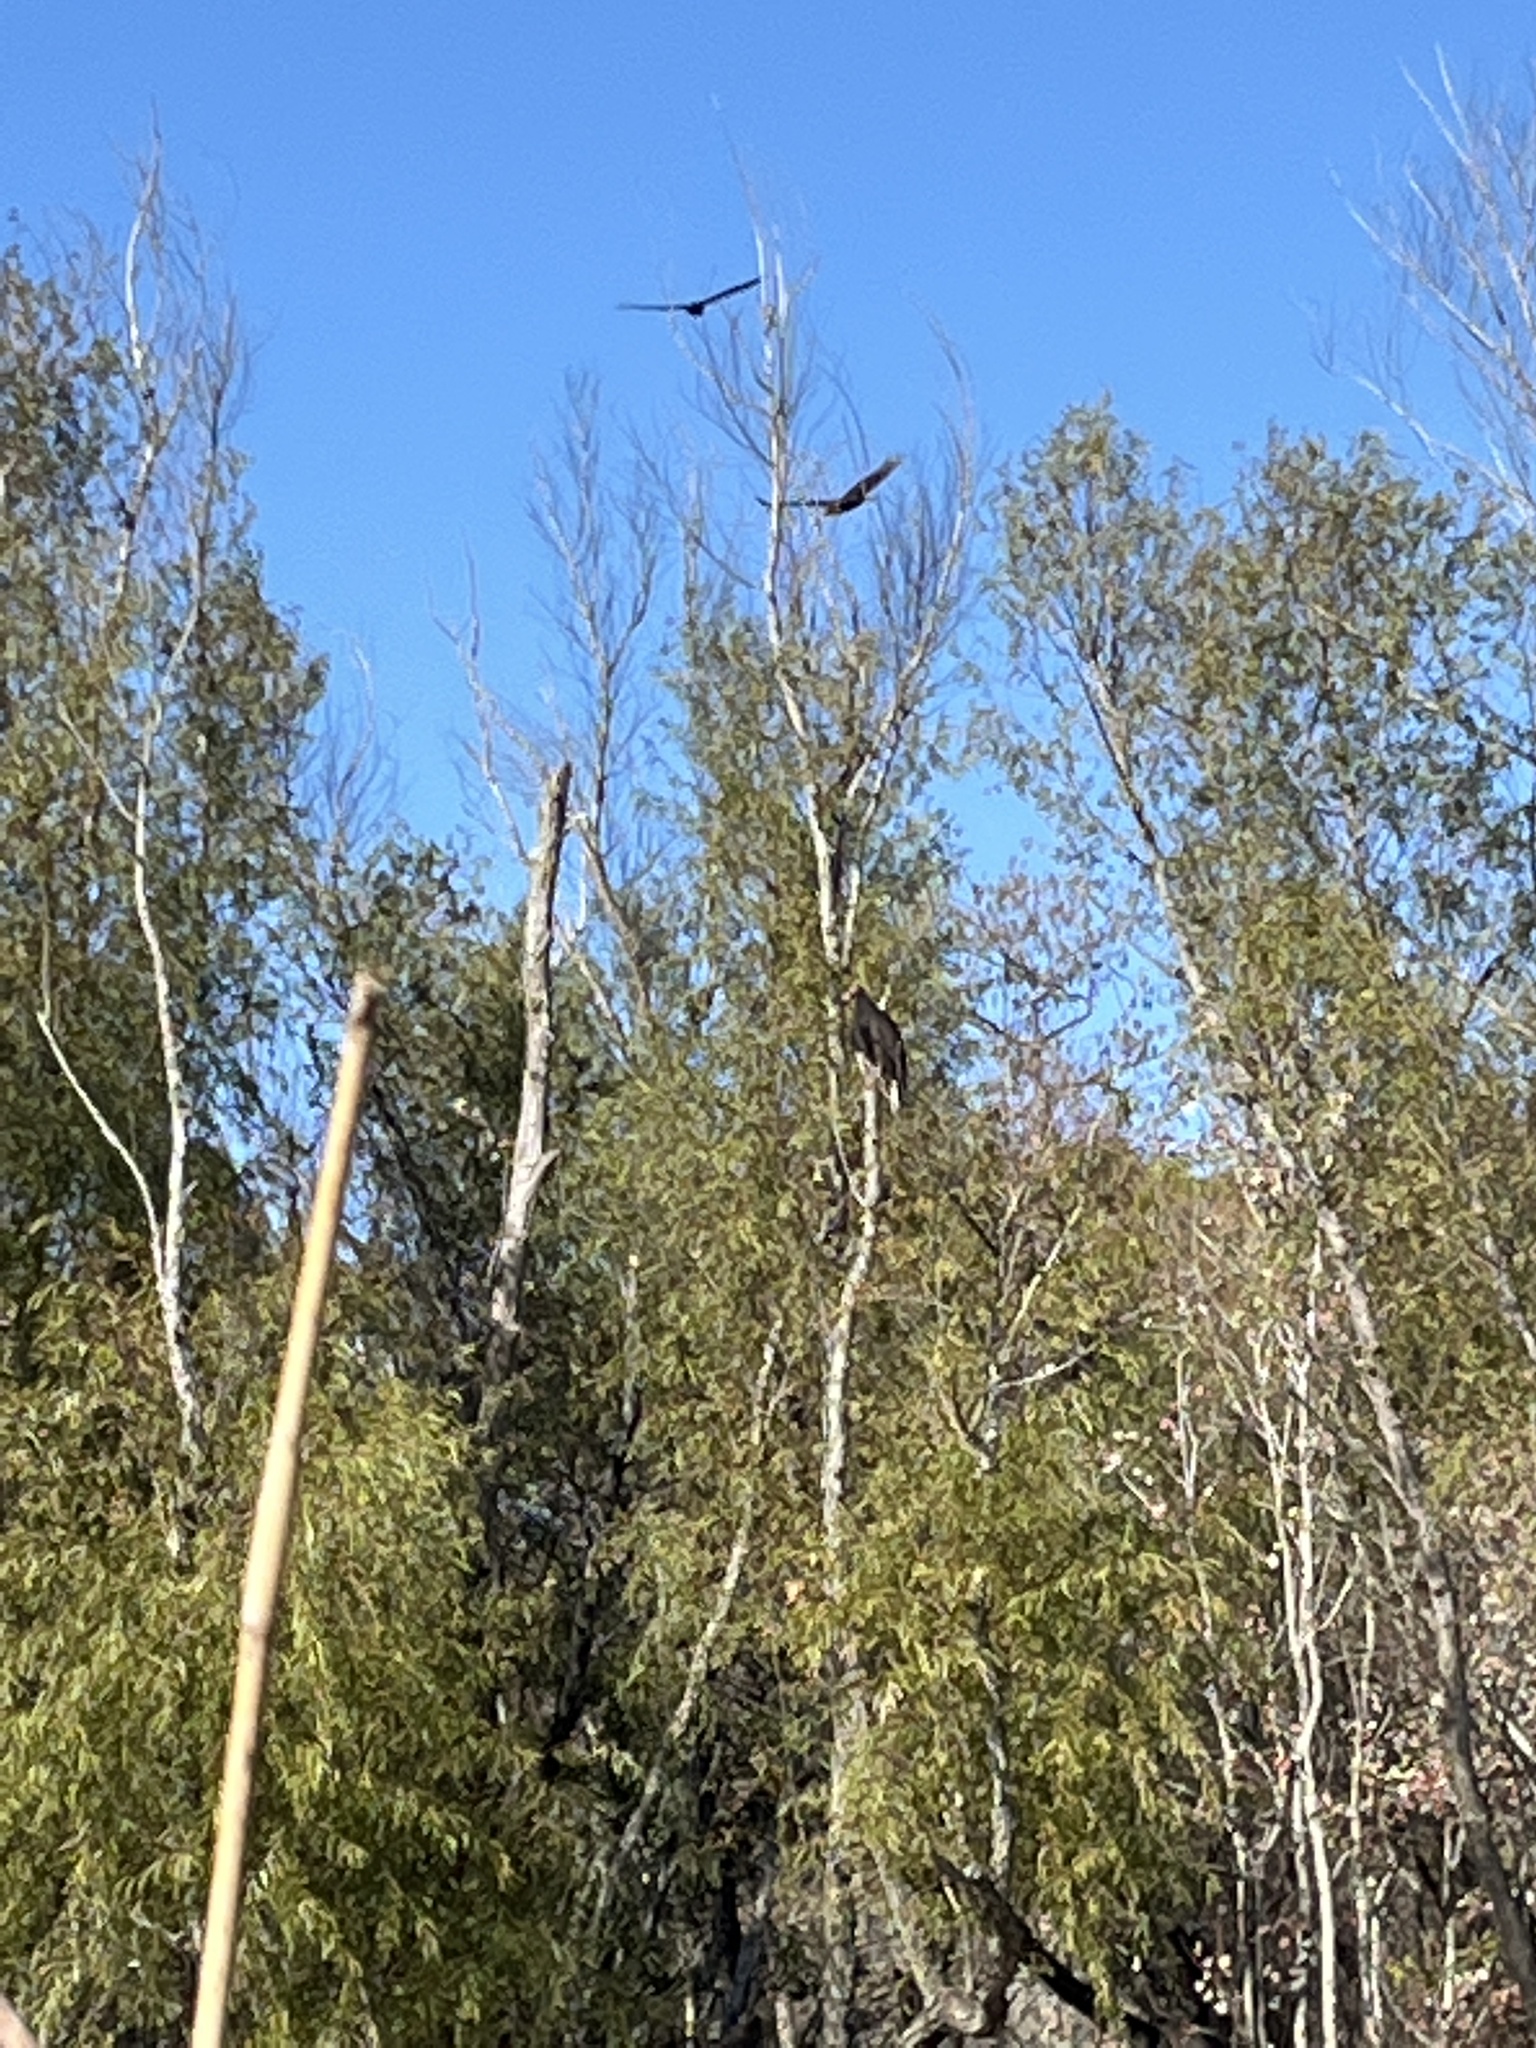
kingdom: Animalia
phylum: Chordata
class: Aves
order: Accipitriformes
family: Cathartidae
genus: Cathartes
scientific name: Cathartes aura
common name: Turkey vulture
